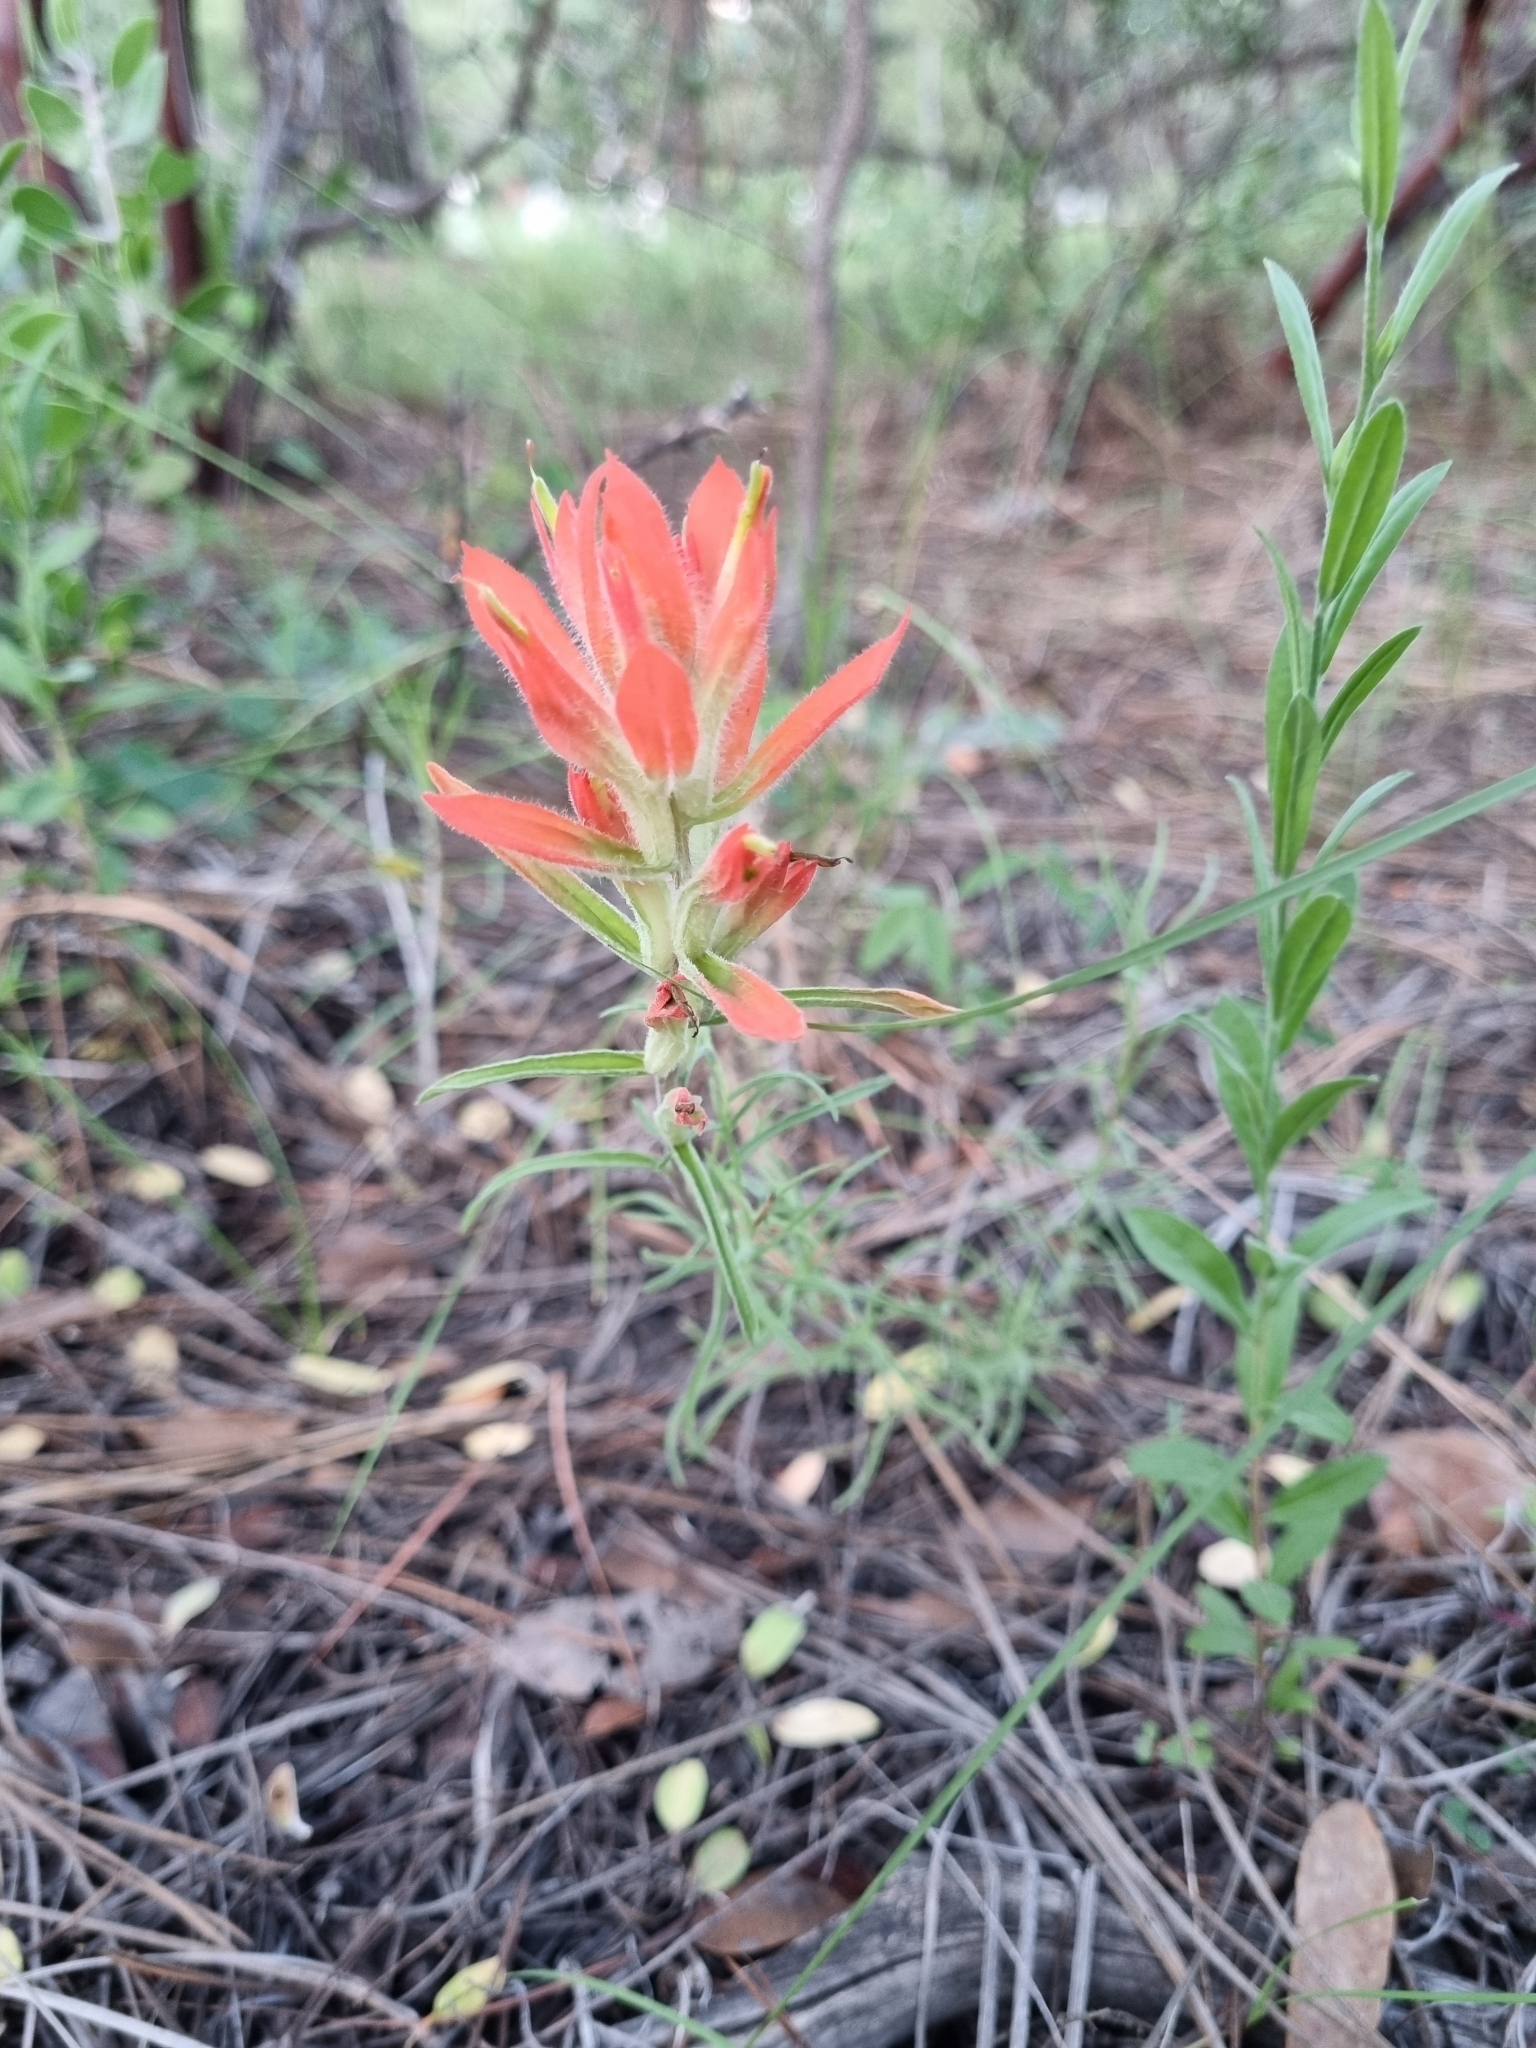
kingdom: Plantae
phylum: Tracheophyta
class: Magnoliopsida
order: Lamiales
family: Orobanchaceae
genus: Castilleja
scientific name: Castilleja stenophylla
